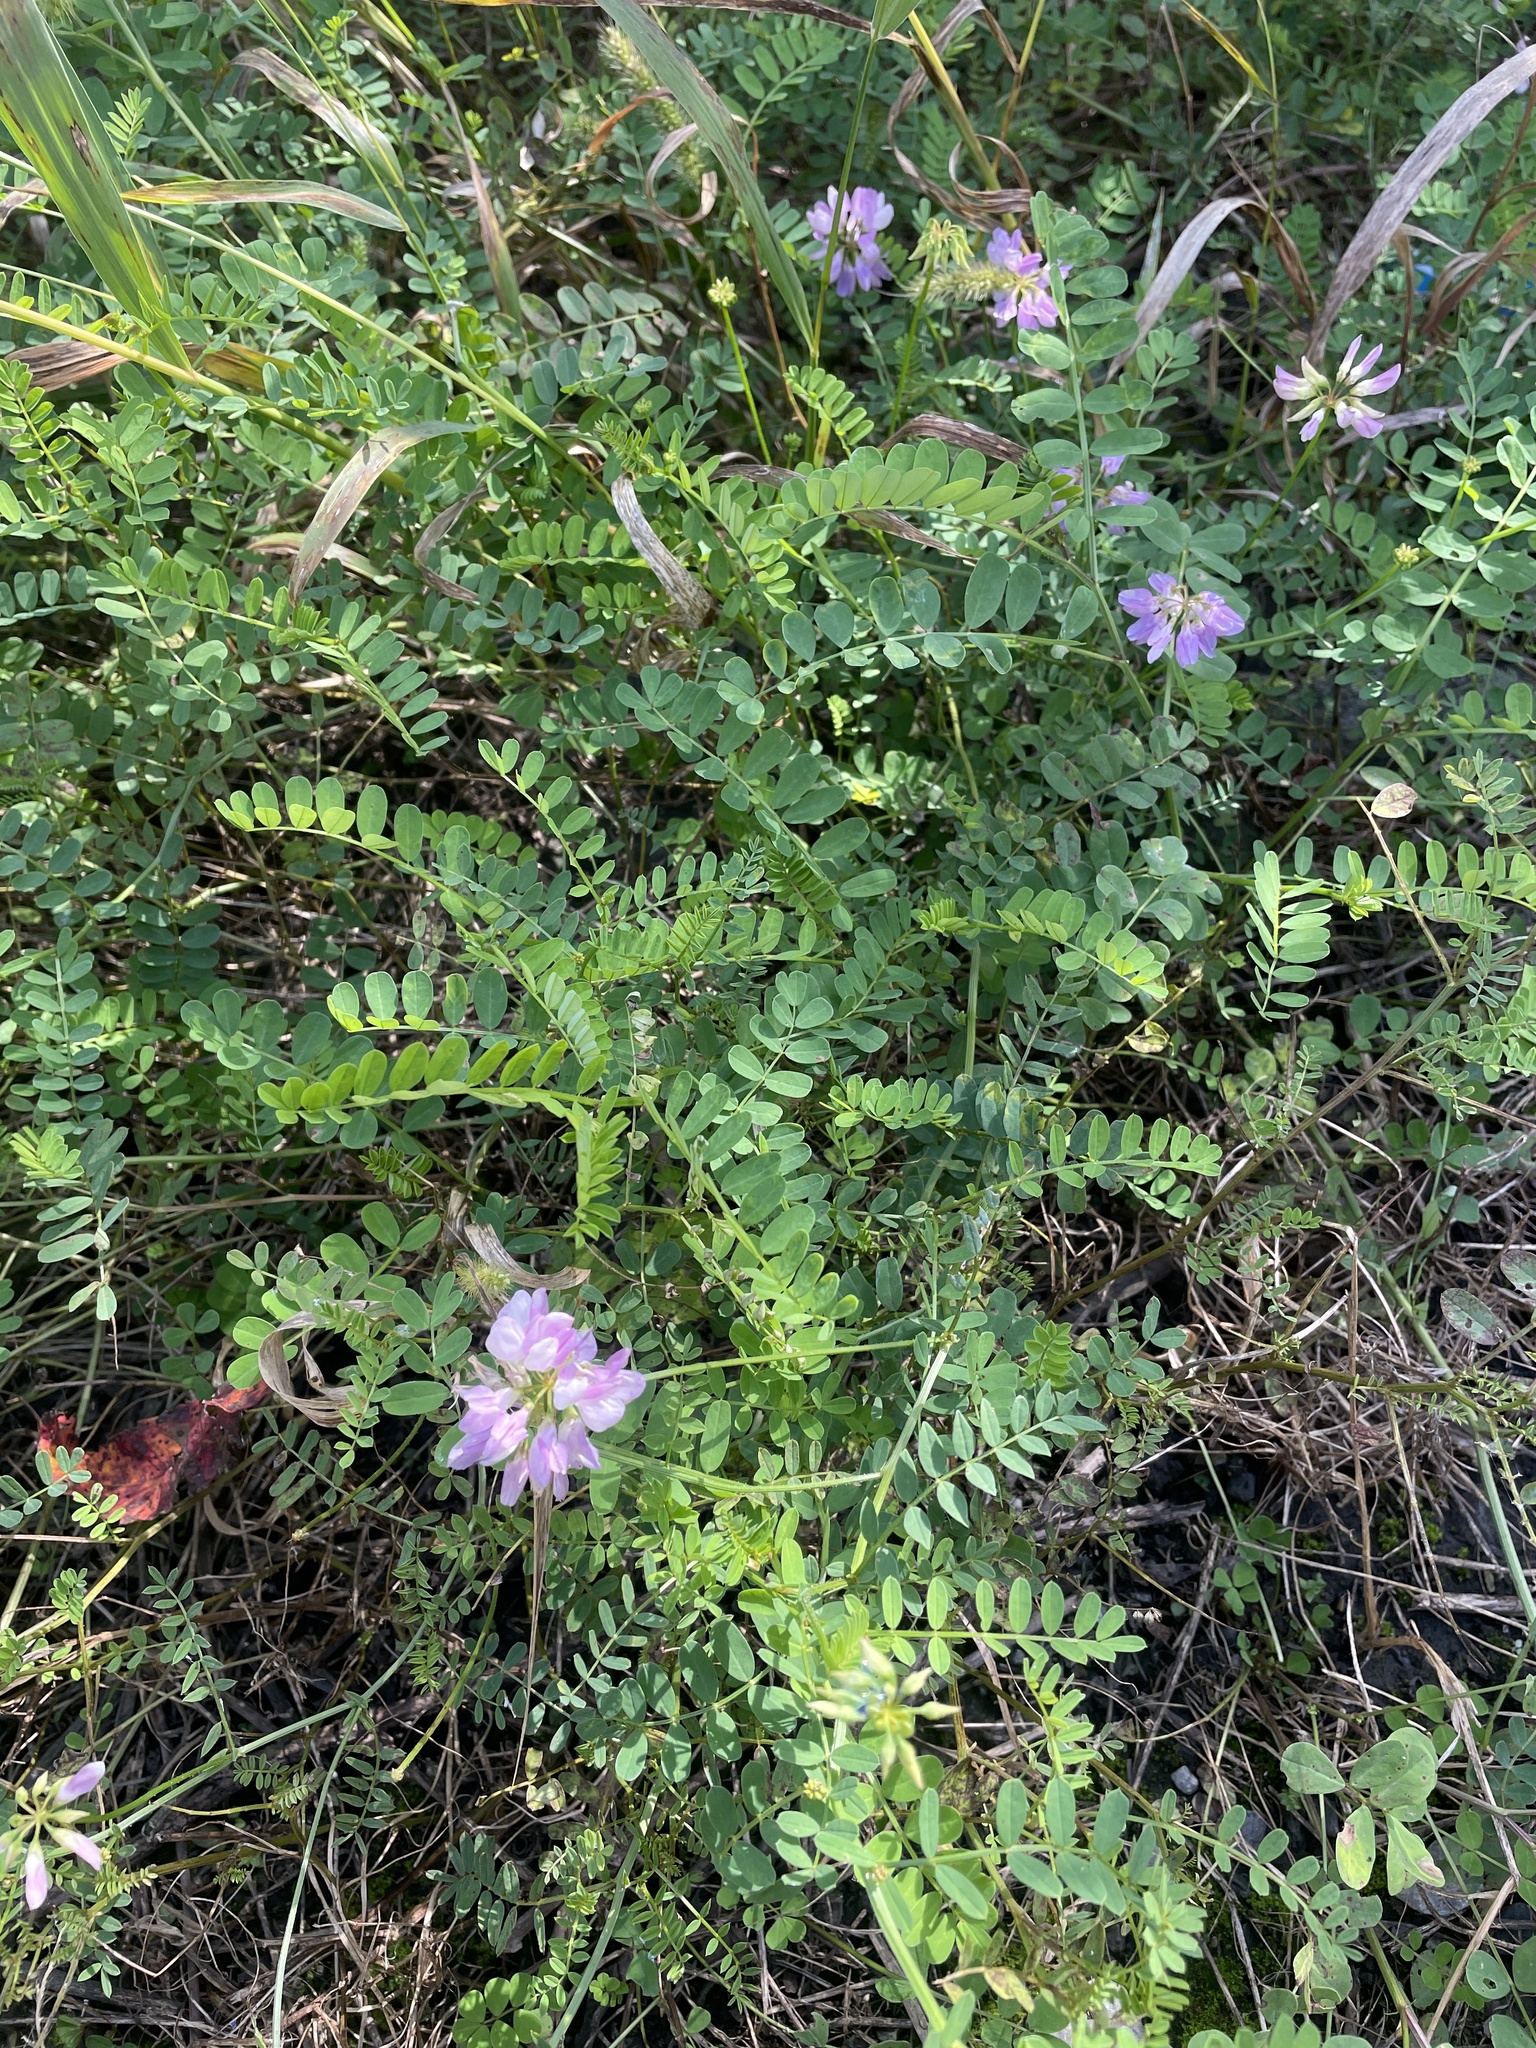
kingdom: Plantae
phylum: Tracheophyta
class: Magnoliopsida
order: Fabales
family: Fabaceae
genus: Coronilla
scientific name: Coronilla varia
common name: Crownvetch
